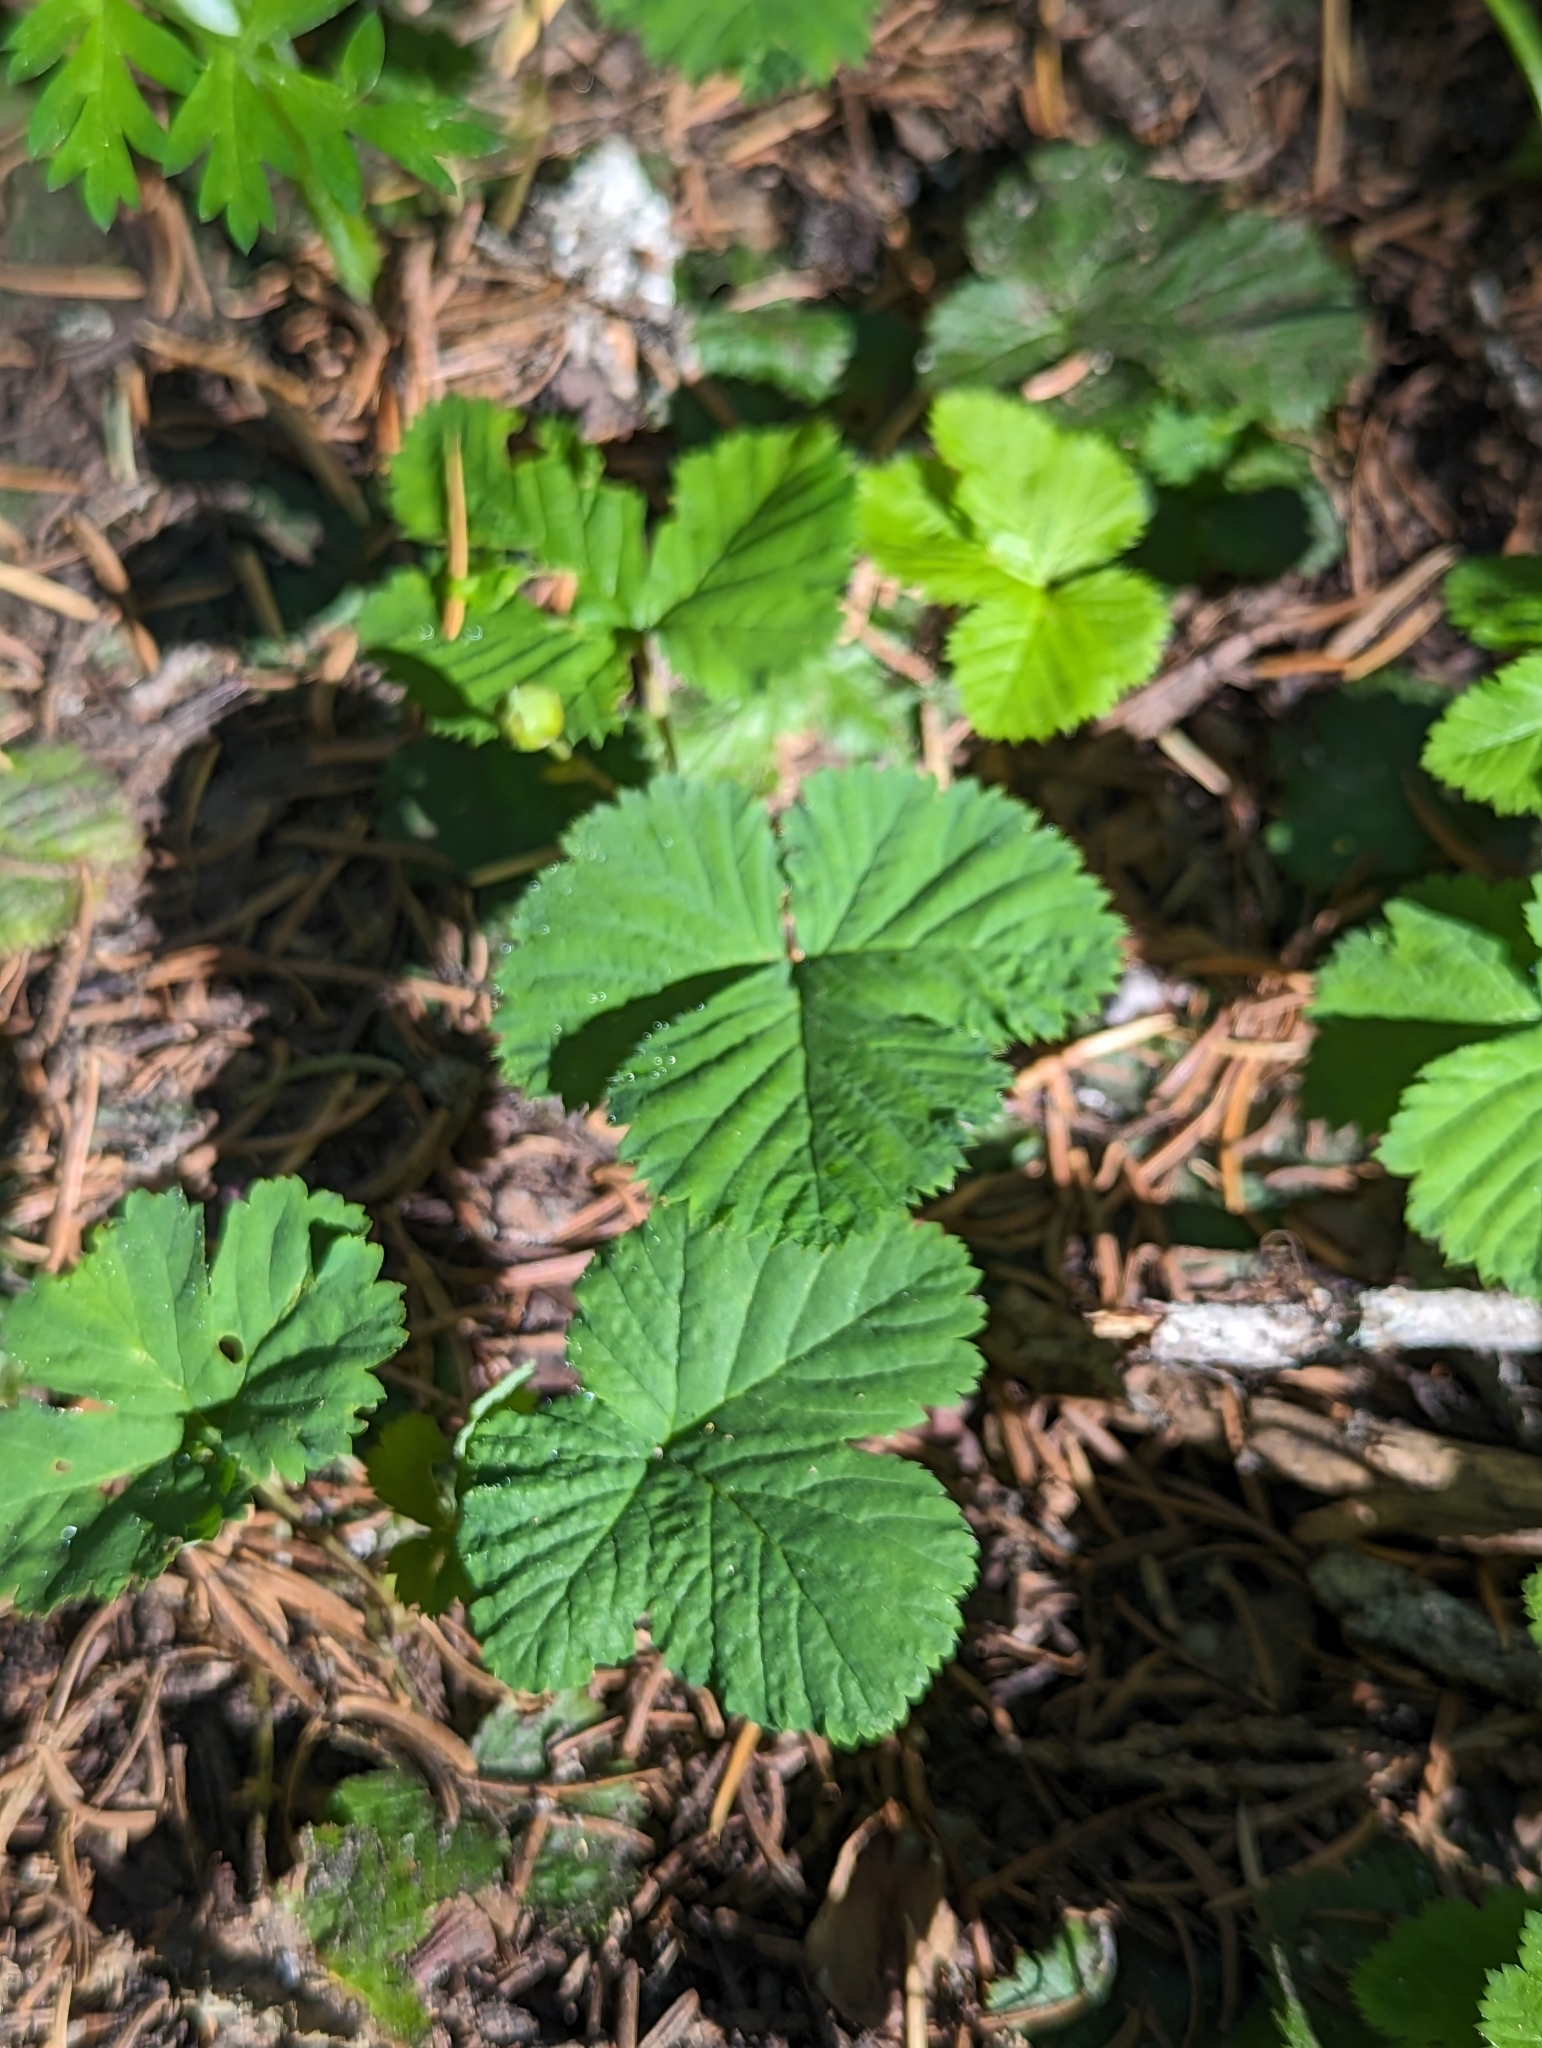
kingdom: Plantae
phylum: Tracheophyta
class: Magnoliopsida
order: Rosales
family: Rosaceae
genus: Rubus
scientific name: Rubus lasiococcus
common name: Dwarf bramble
